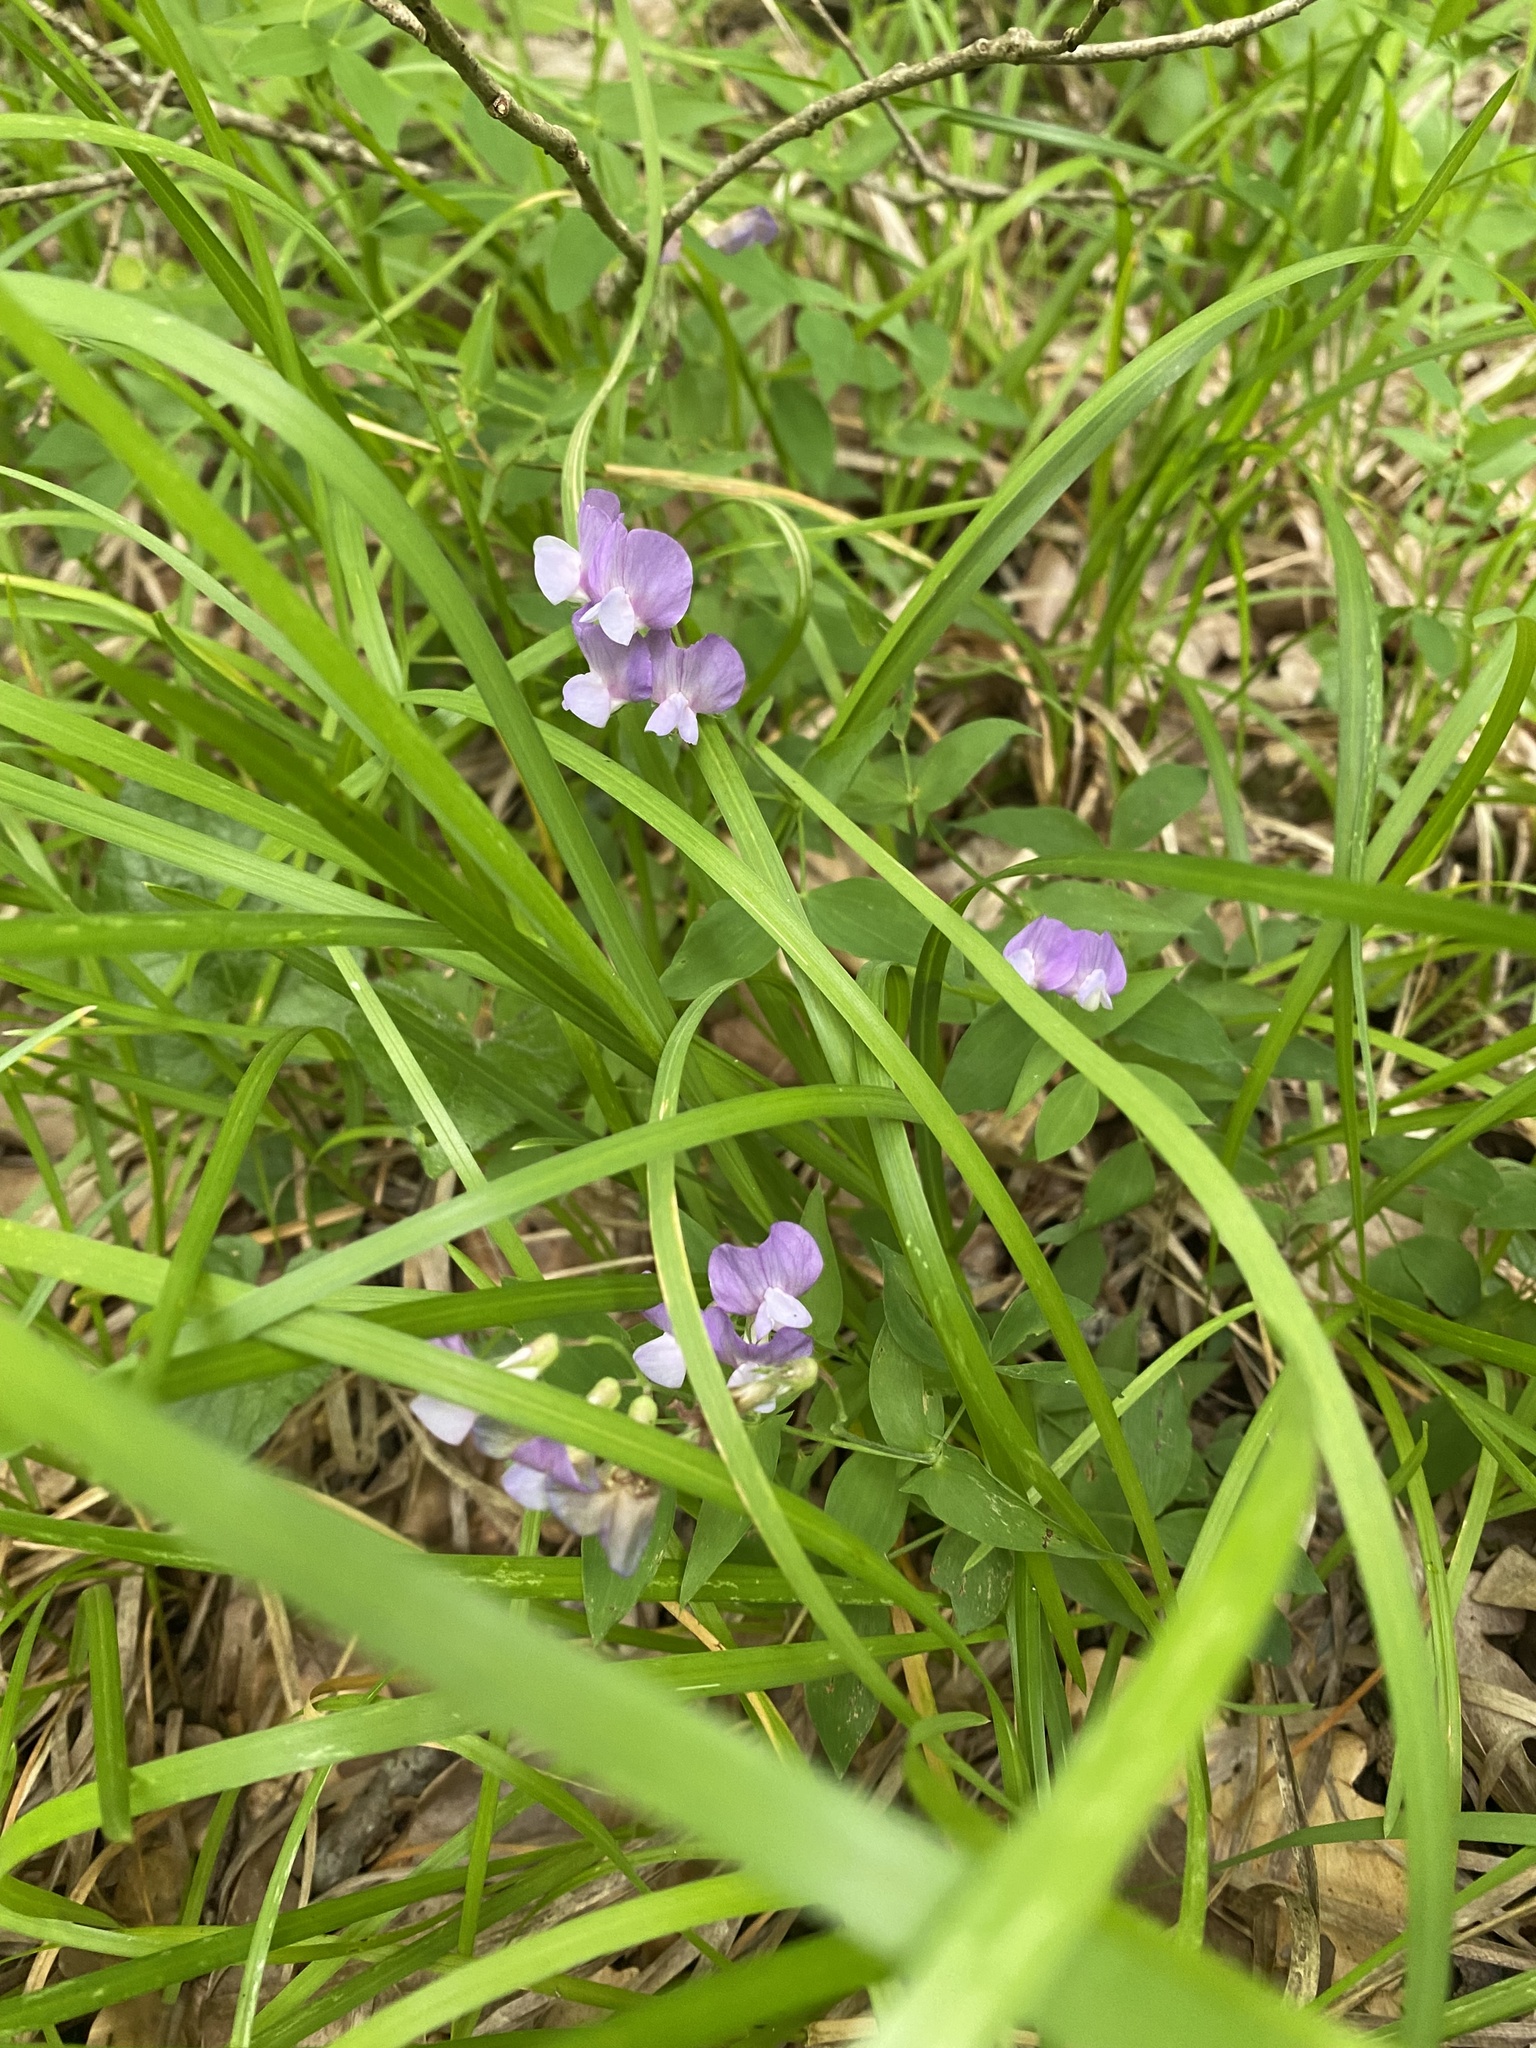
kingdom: Plantae
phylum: Tracheophyta
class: Magnoliopsida
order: Fabales
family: Fabaceae
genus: Lathyrus
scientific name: Lathyrus laxiflorus
